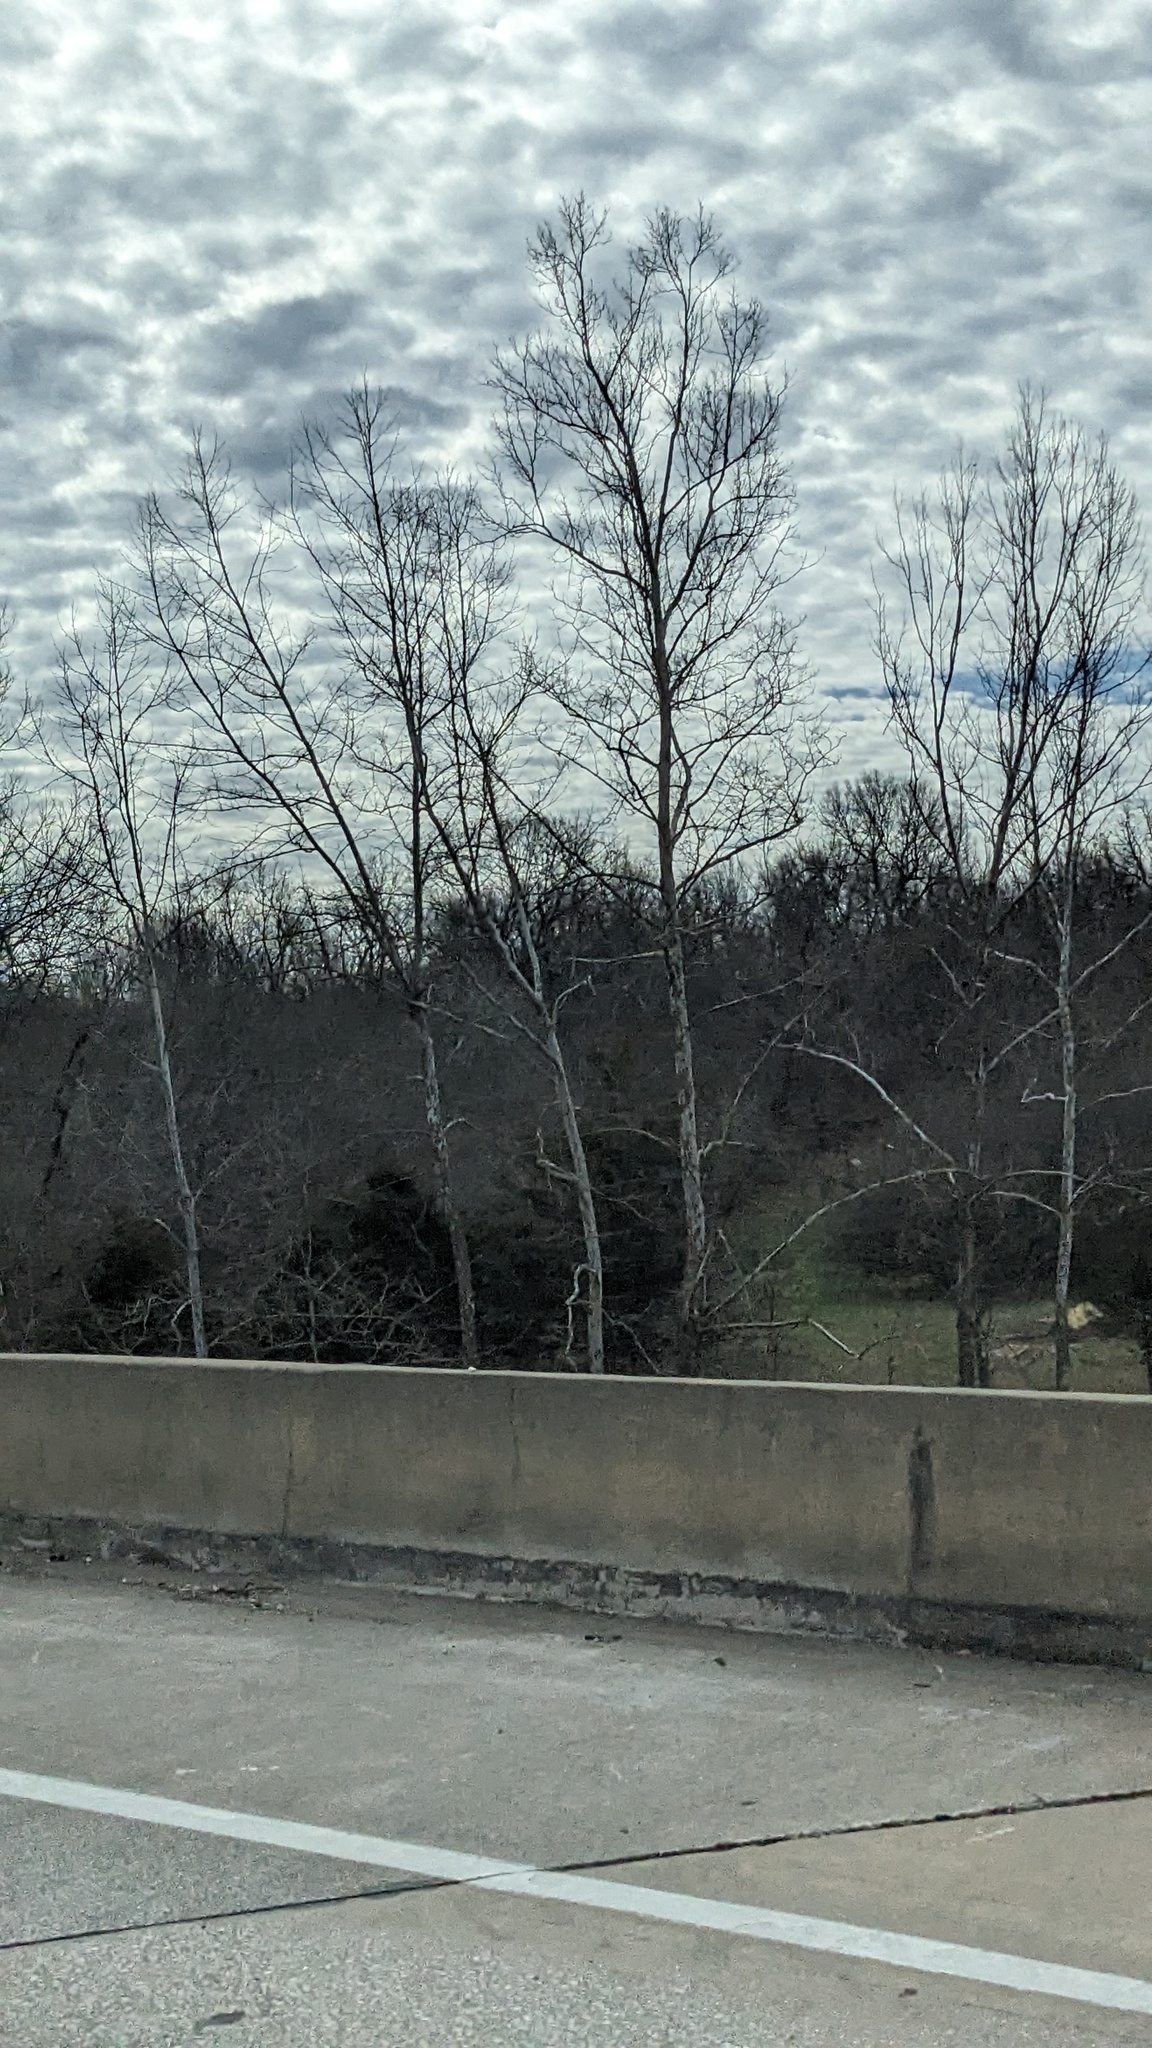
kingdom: Plantae
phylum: Tracheophyta
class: Magnoliopsida
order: Proteales
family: Platanaceae
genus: Platanus
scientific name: Platanus occidentalis
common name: American sycamore
